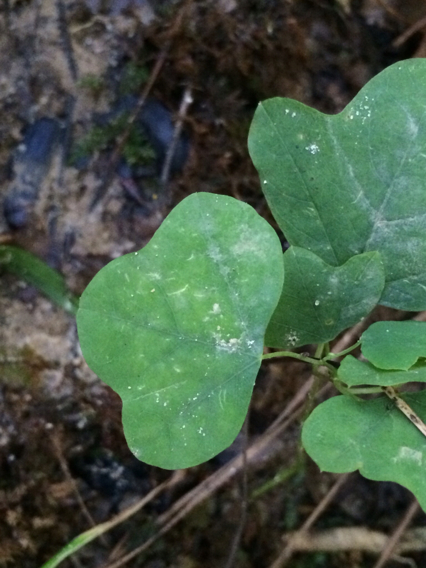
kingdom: Plantae
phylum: Tracheophyta
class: Magnoliopsida
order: Malpighiales
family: Passifloraceae
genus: Passiflora
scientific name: Passiflora lutea
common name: Yellow passionflower
